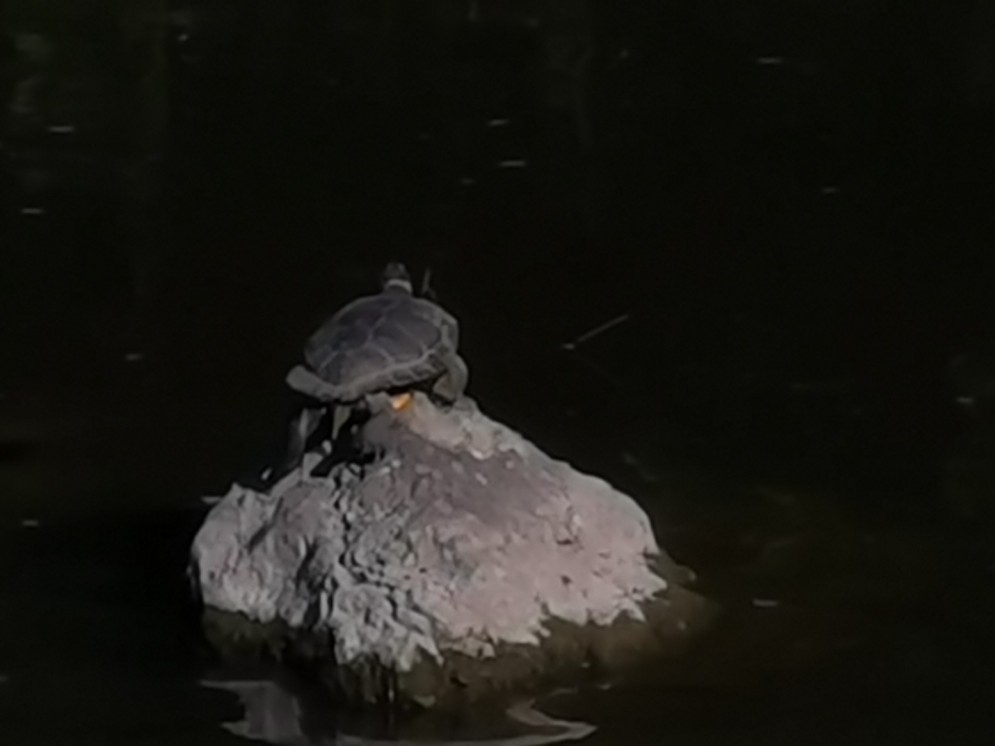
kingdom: Animalia
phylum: Chordata
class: Testudines
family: Emydidae
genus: Trachemys
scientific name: Trachemys scripta
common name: Slider
